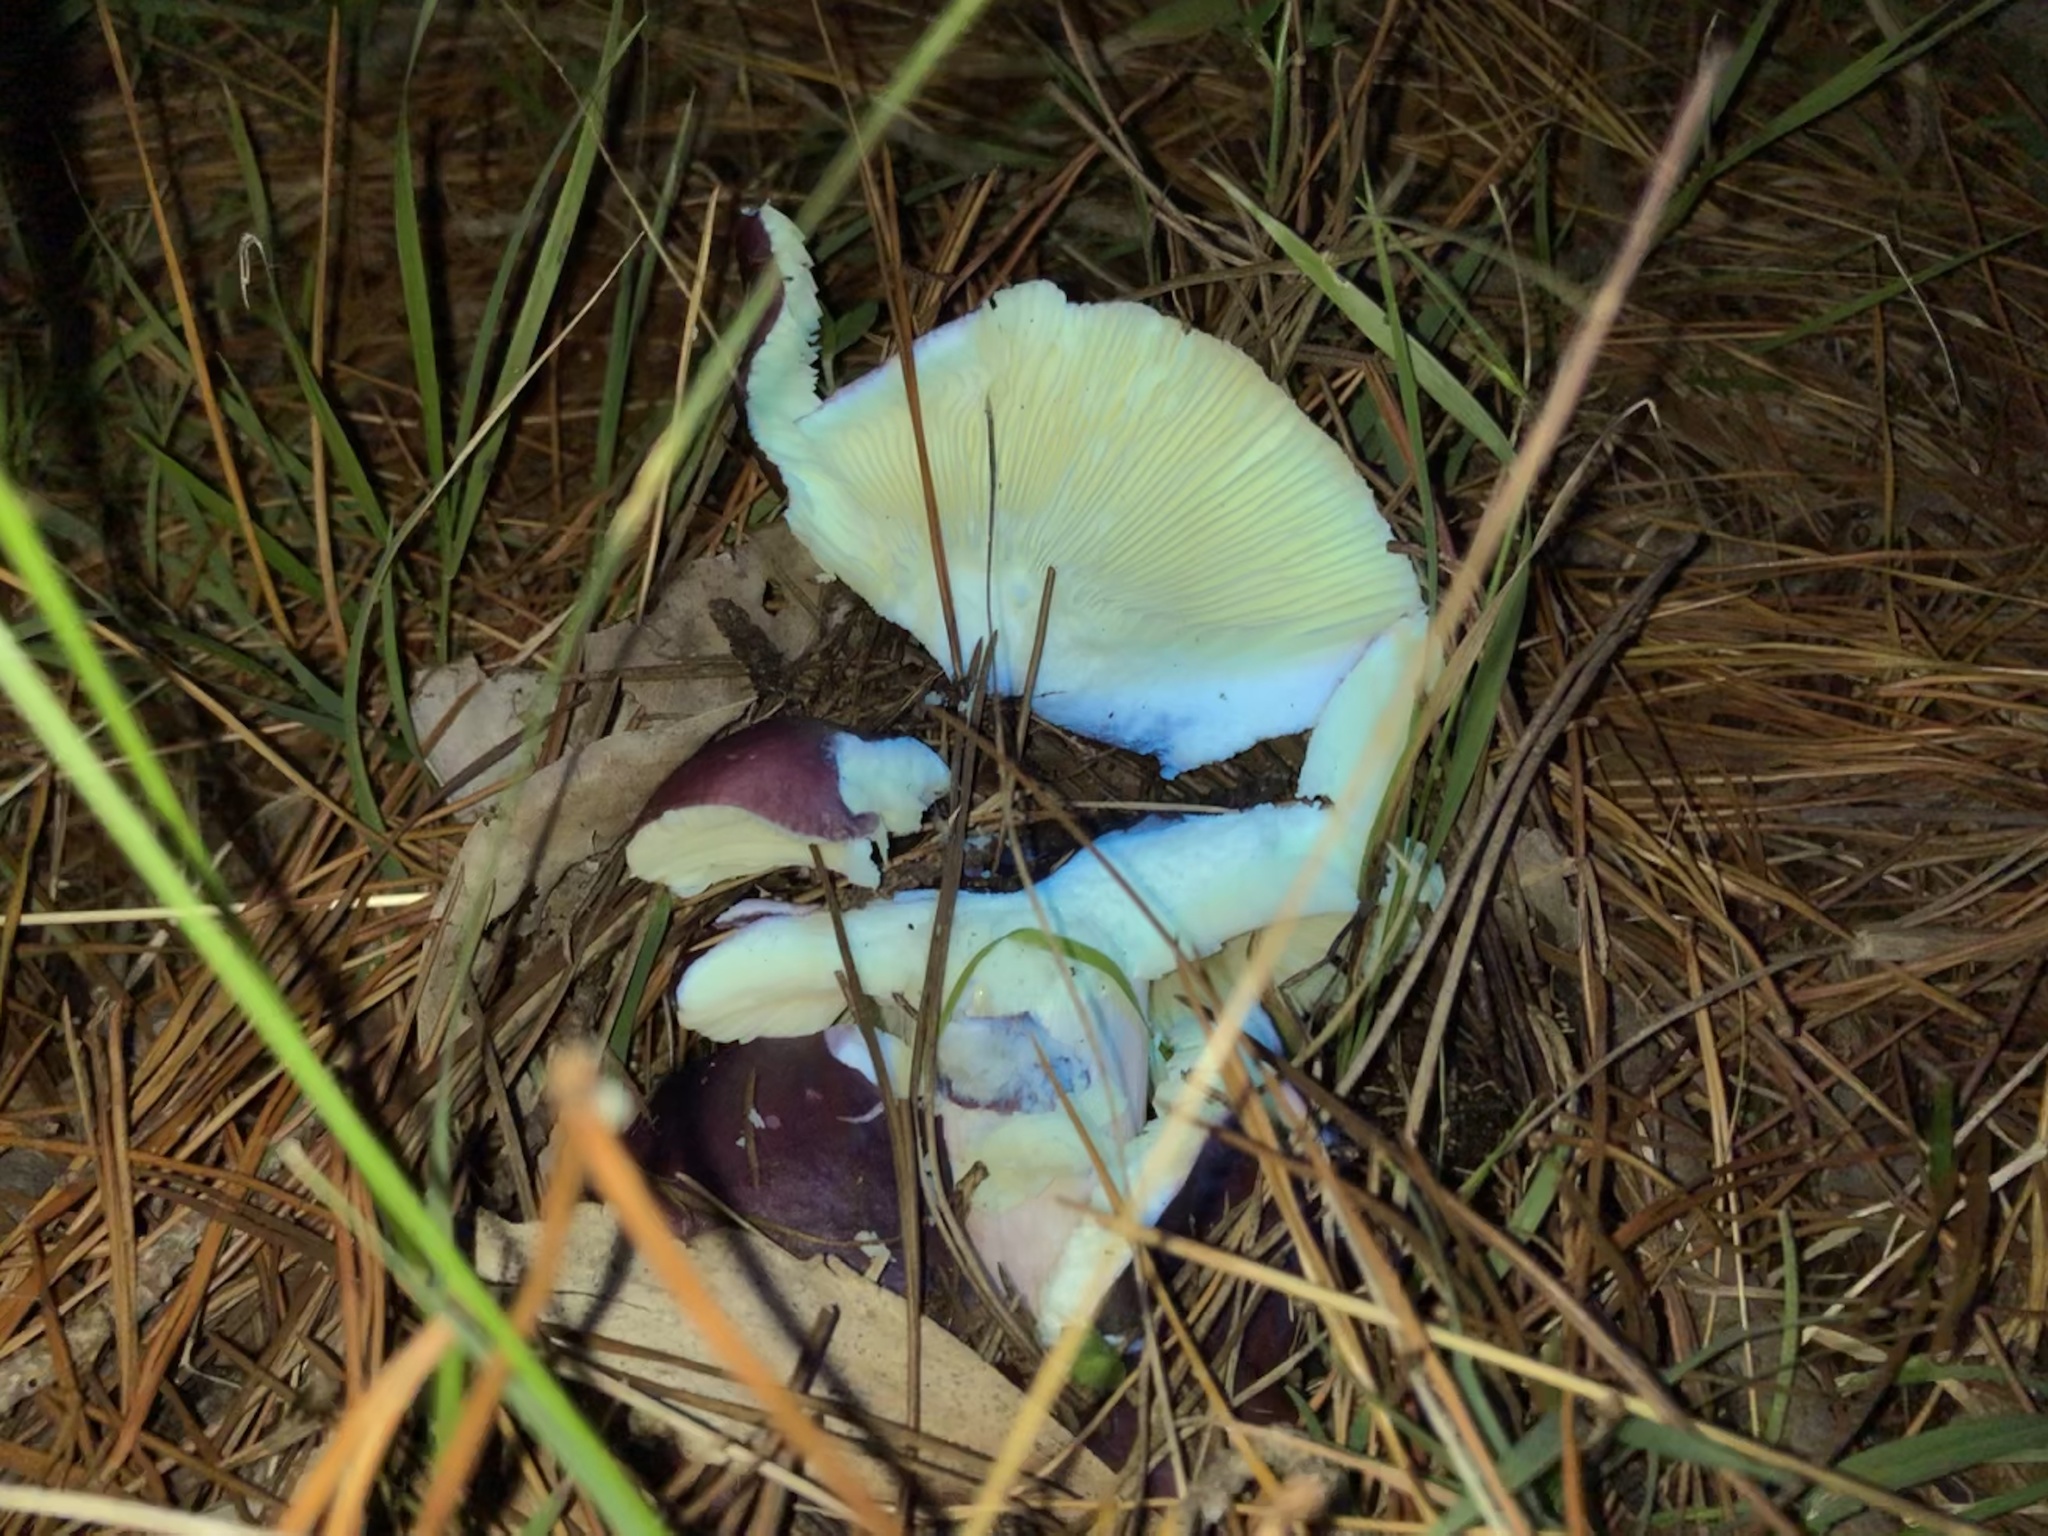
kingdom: Fungi
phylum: Basidiomycota
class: Agaricomycetes
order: Russulales
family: Russulaceae
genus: Russula
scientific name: Russula lenkunya
